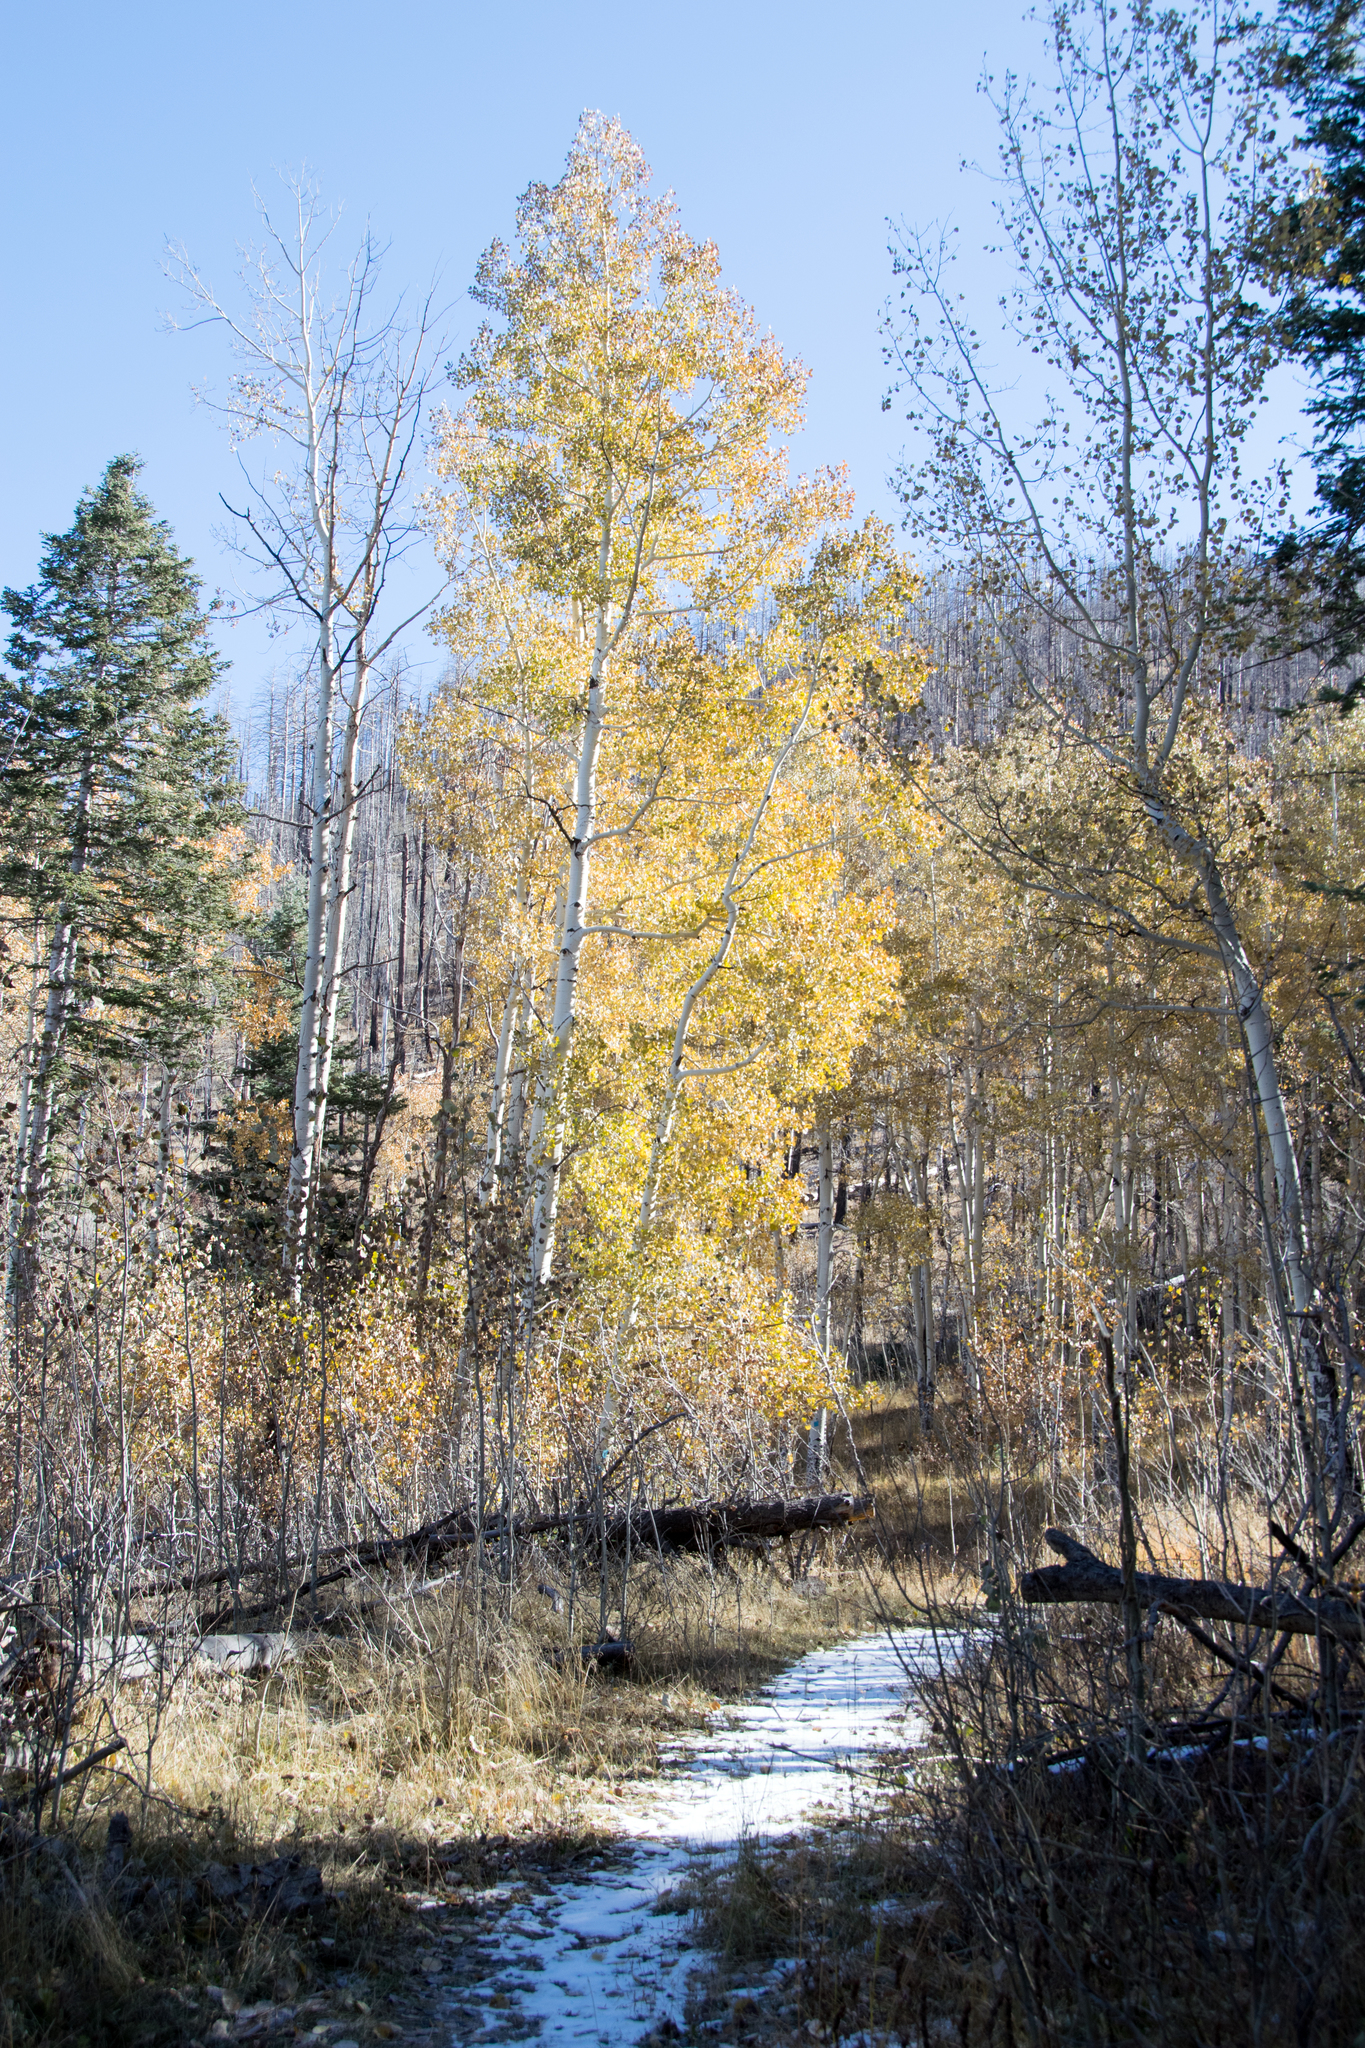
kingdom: Plantae
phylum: Tracheophyta
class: Magnoliopsida
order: Malpighiales
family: Salicaceae
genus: Populus
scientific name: Populus tremuloides
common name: Quaking aspen
